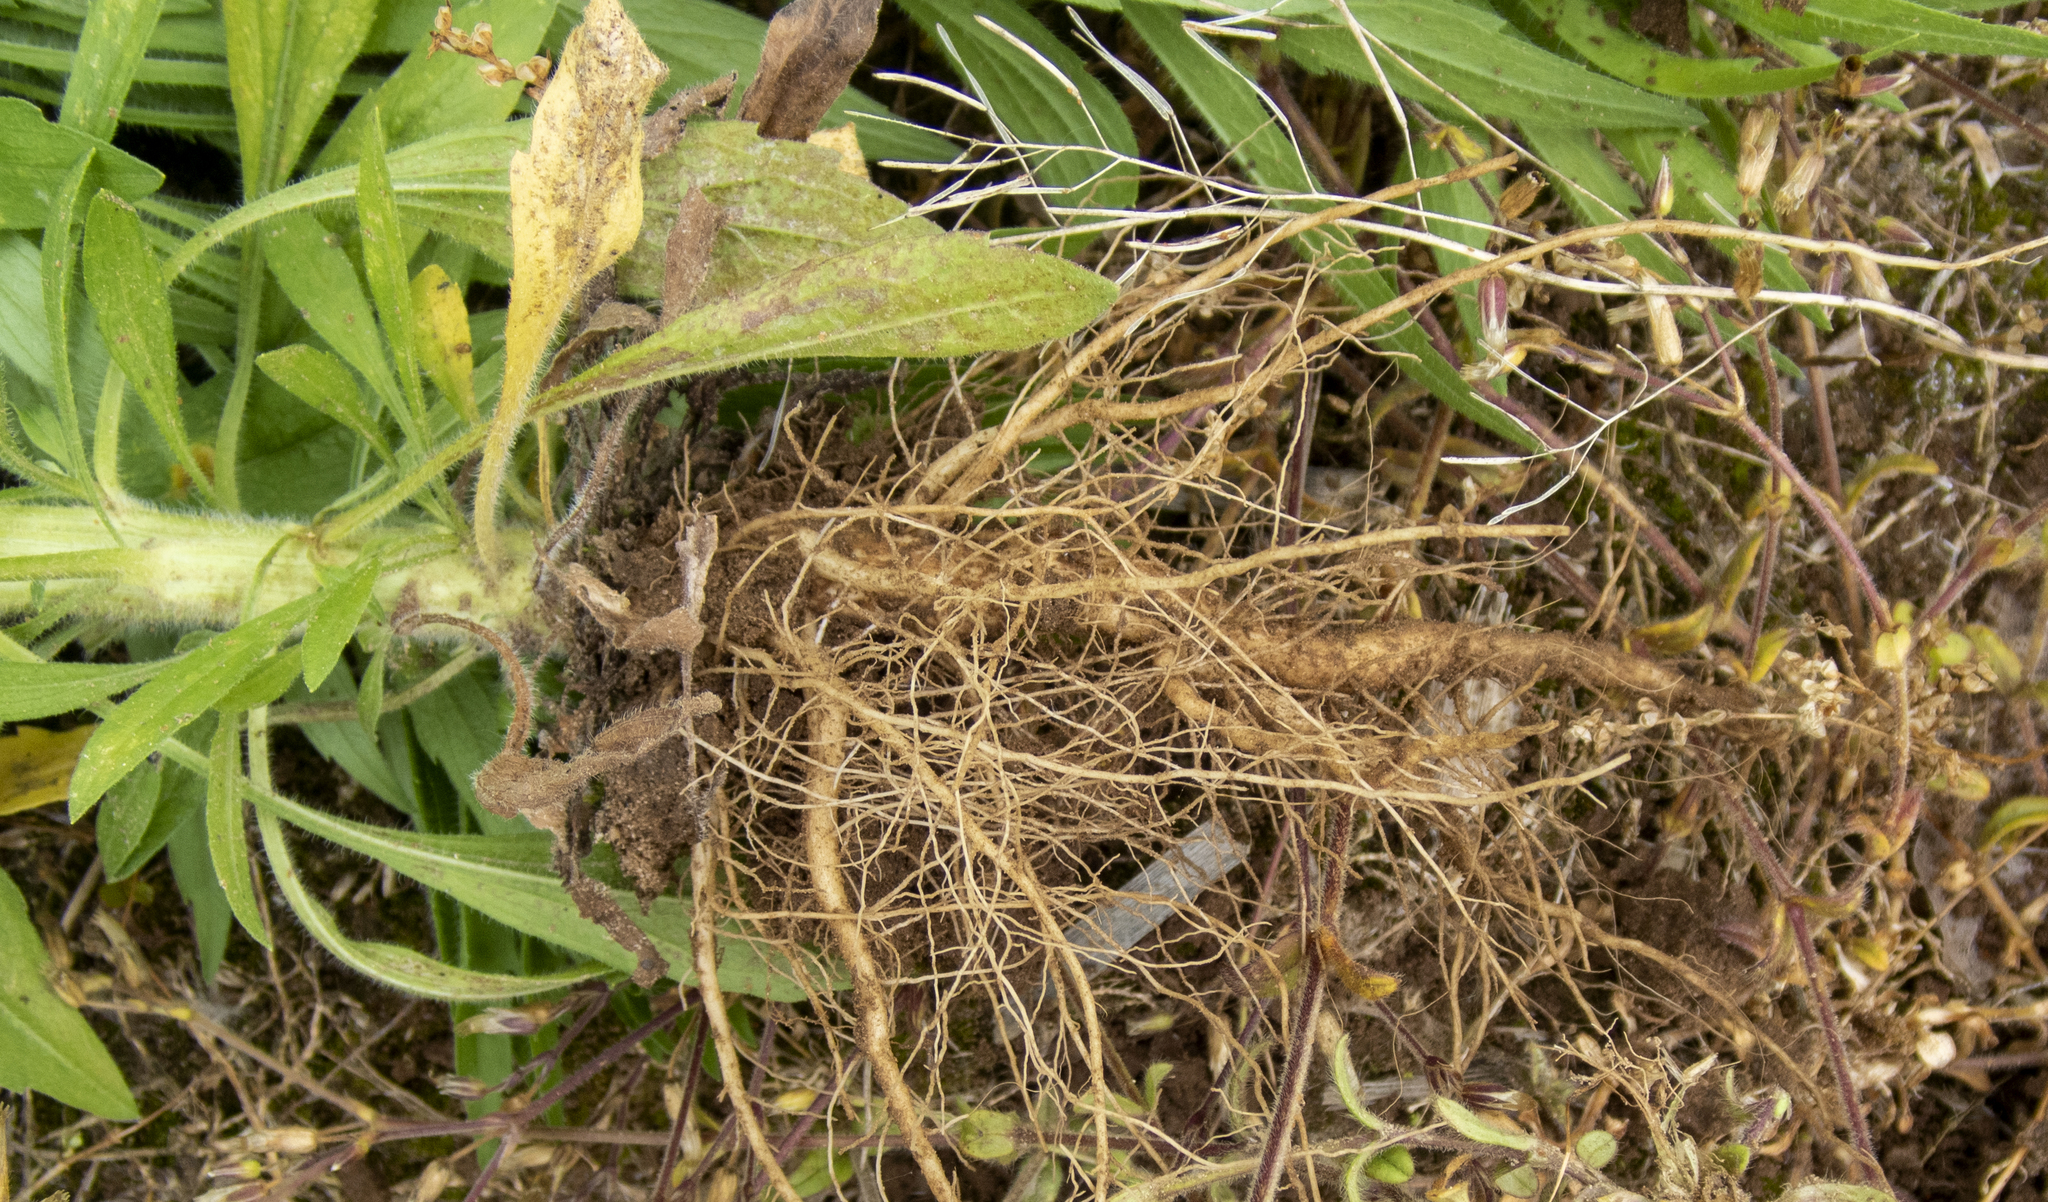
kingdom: Plantae
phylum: Tracheophyta
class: Magnoliopsida
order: Asterales
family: Asteraceae
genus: Erigeron
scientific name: Erigeron canadensis
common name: Canadian fleabane
